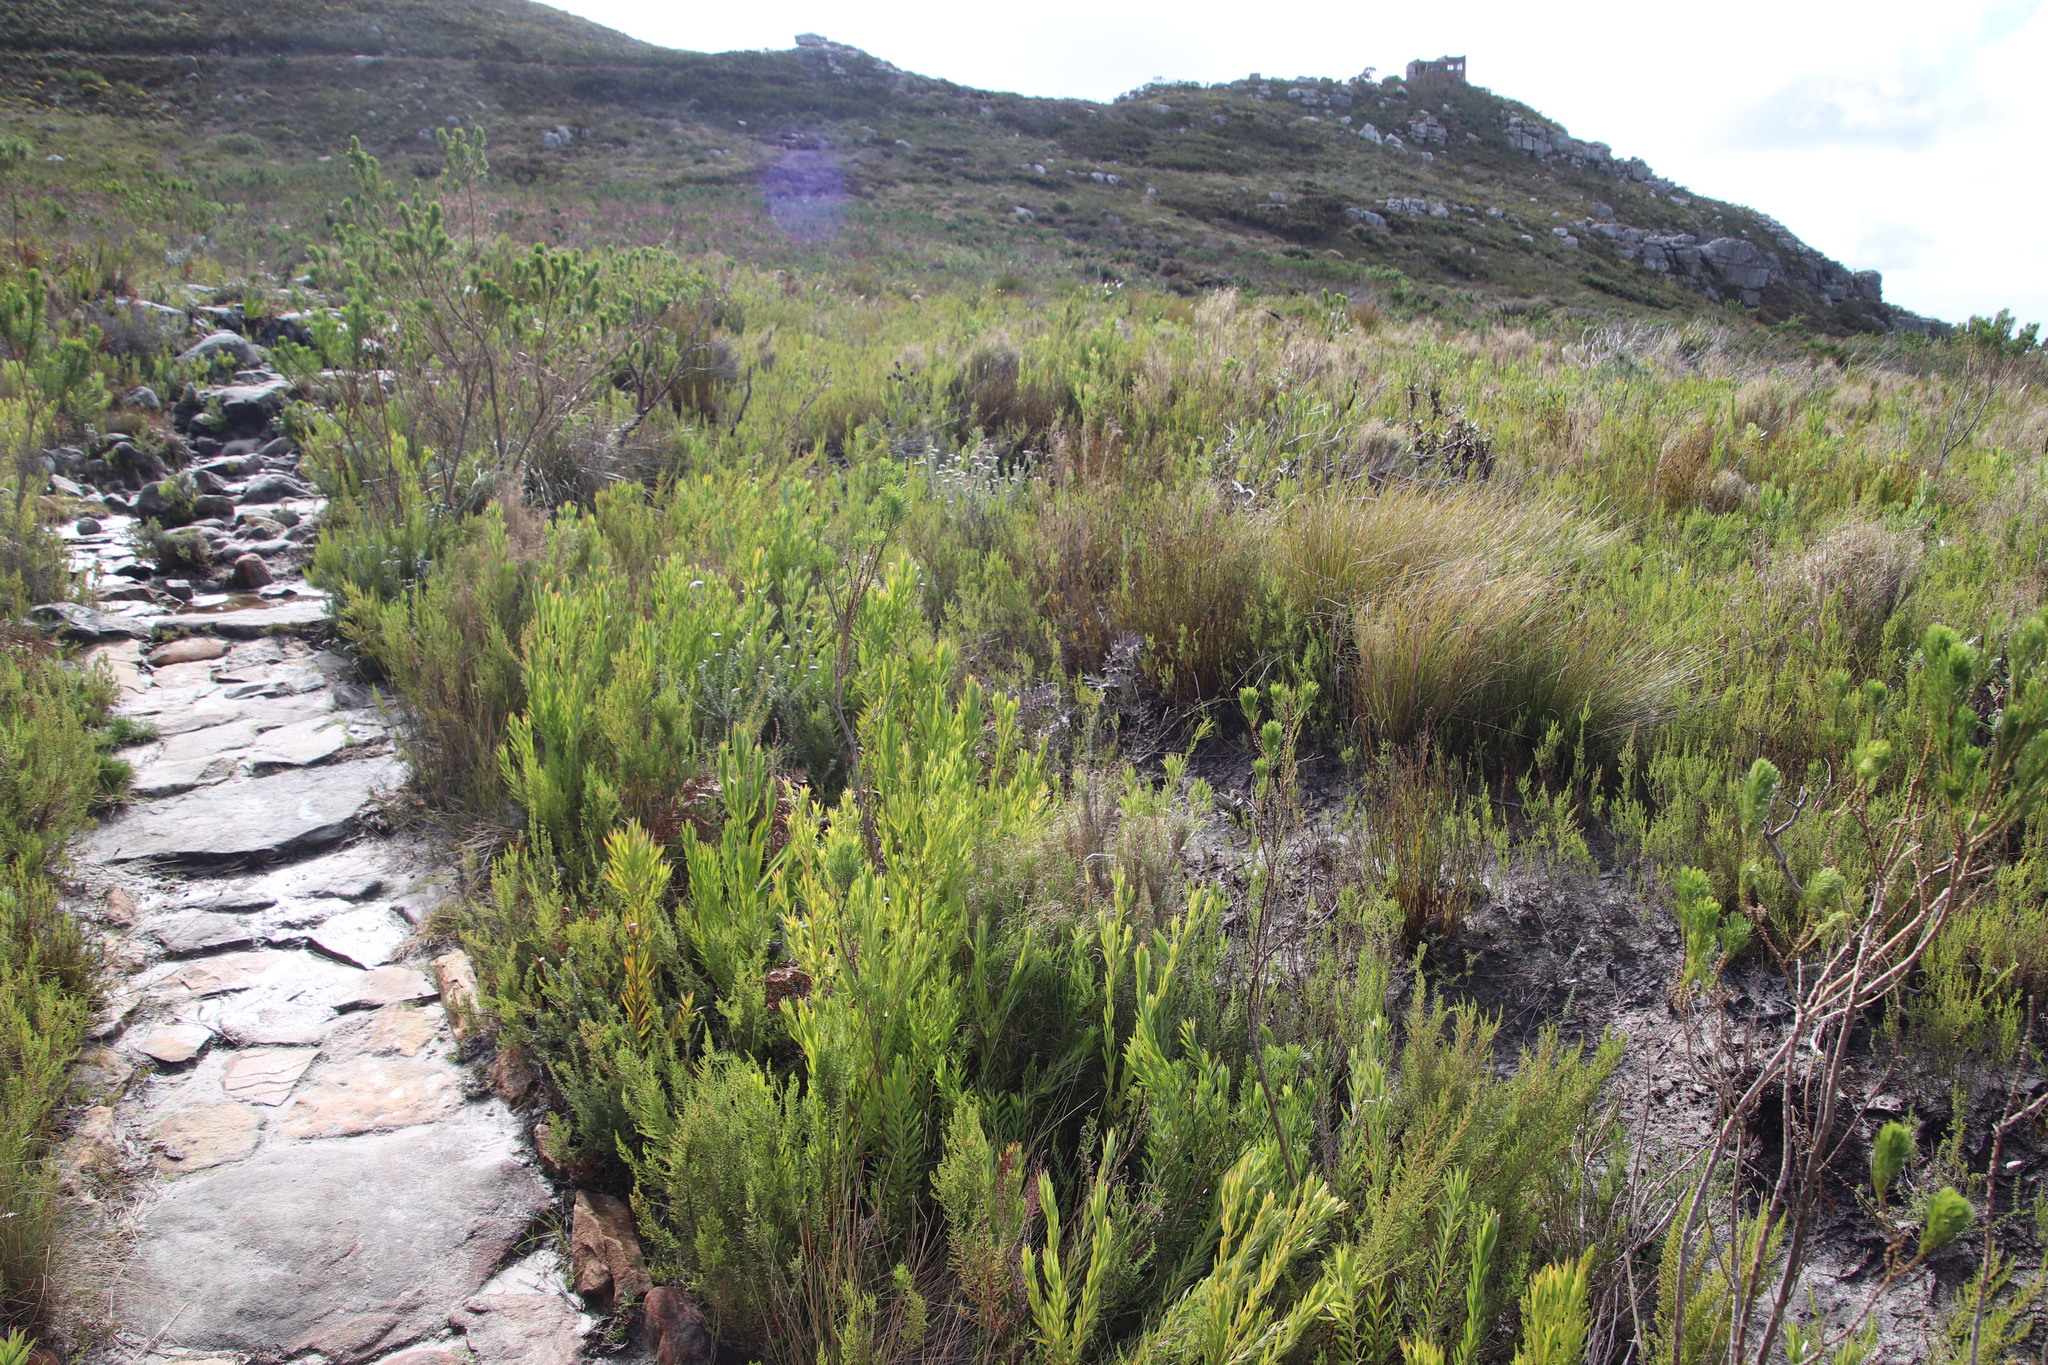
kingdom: Plantae
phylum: Tracheophyta
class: Magnoliopsida
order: Proteales
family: Proteaceae
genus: Leucadendron
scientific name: Leucadendron xanthoconus
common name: Sickle-leaf conebush
